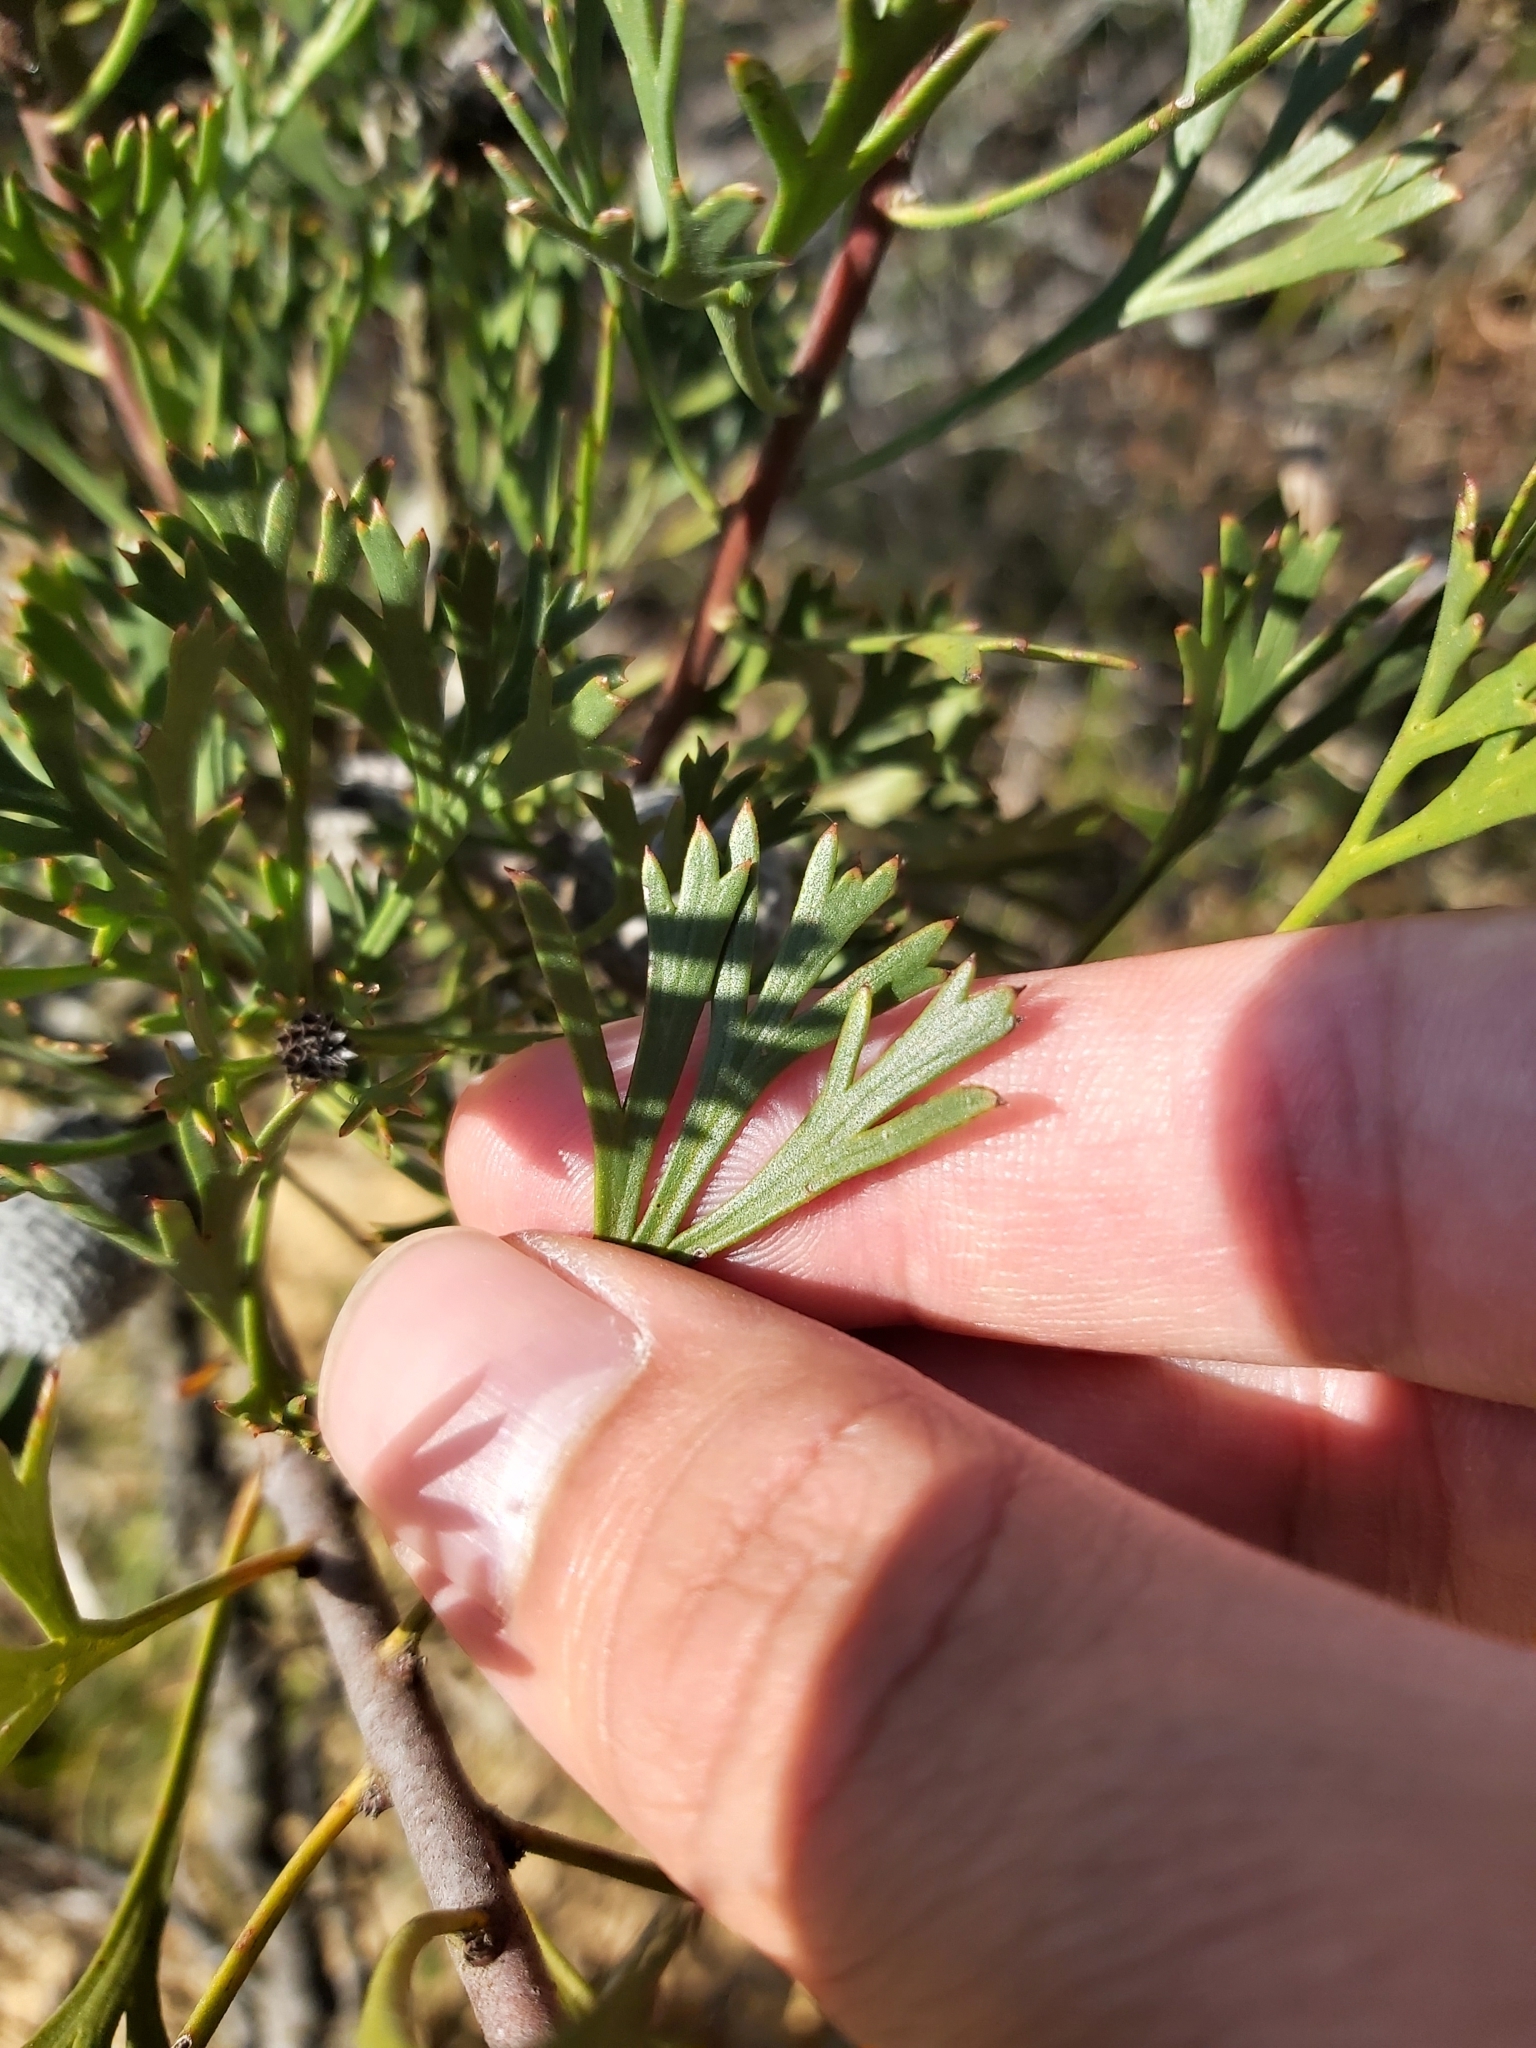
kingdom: Plantae
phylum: Tracheophyta
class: Magnoliopsida
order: Proteales
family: Proteaceae
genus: Isopogon
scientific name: Isopogon anemonifolius
